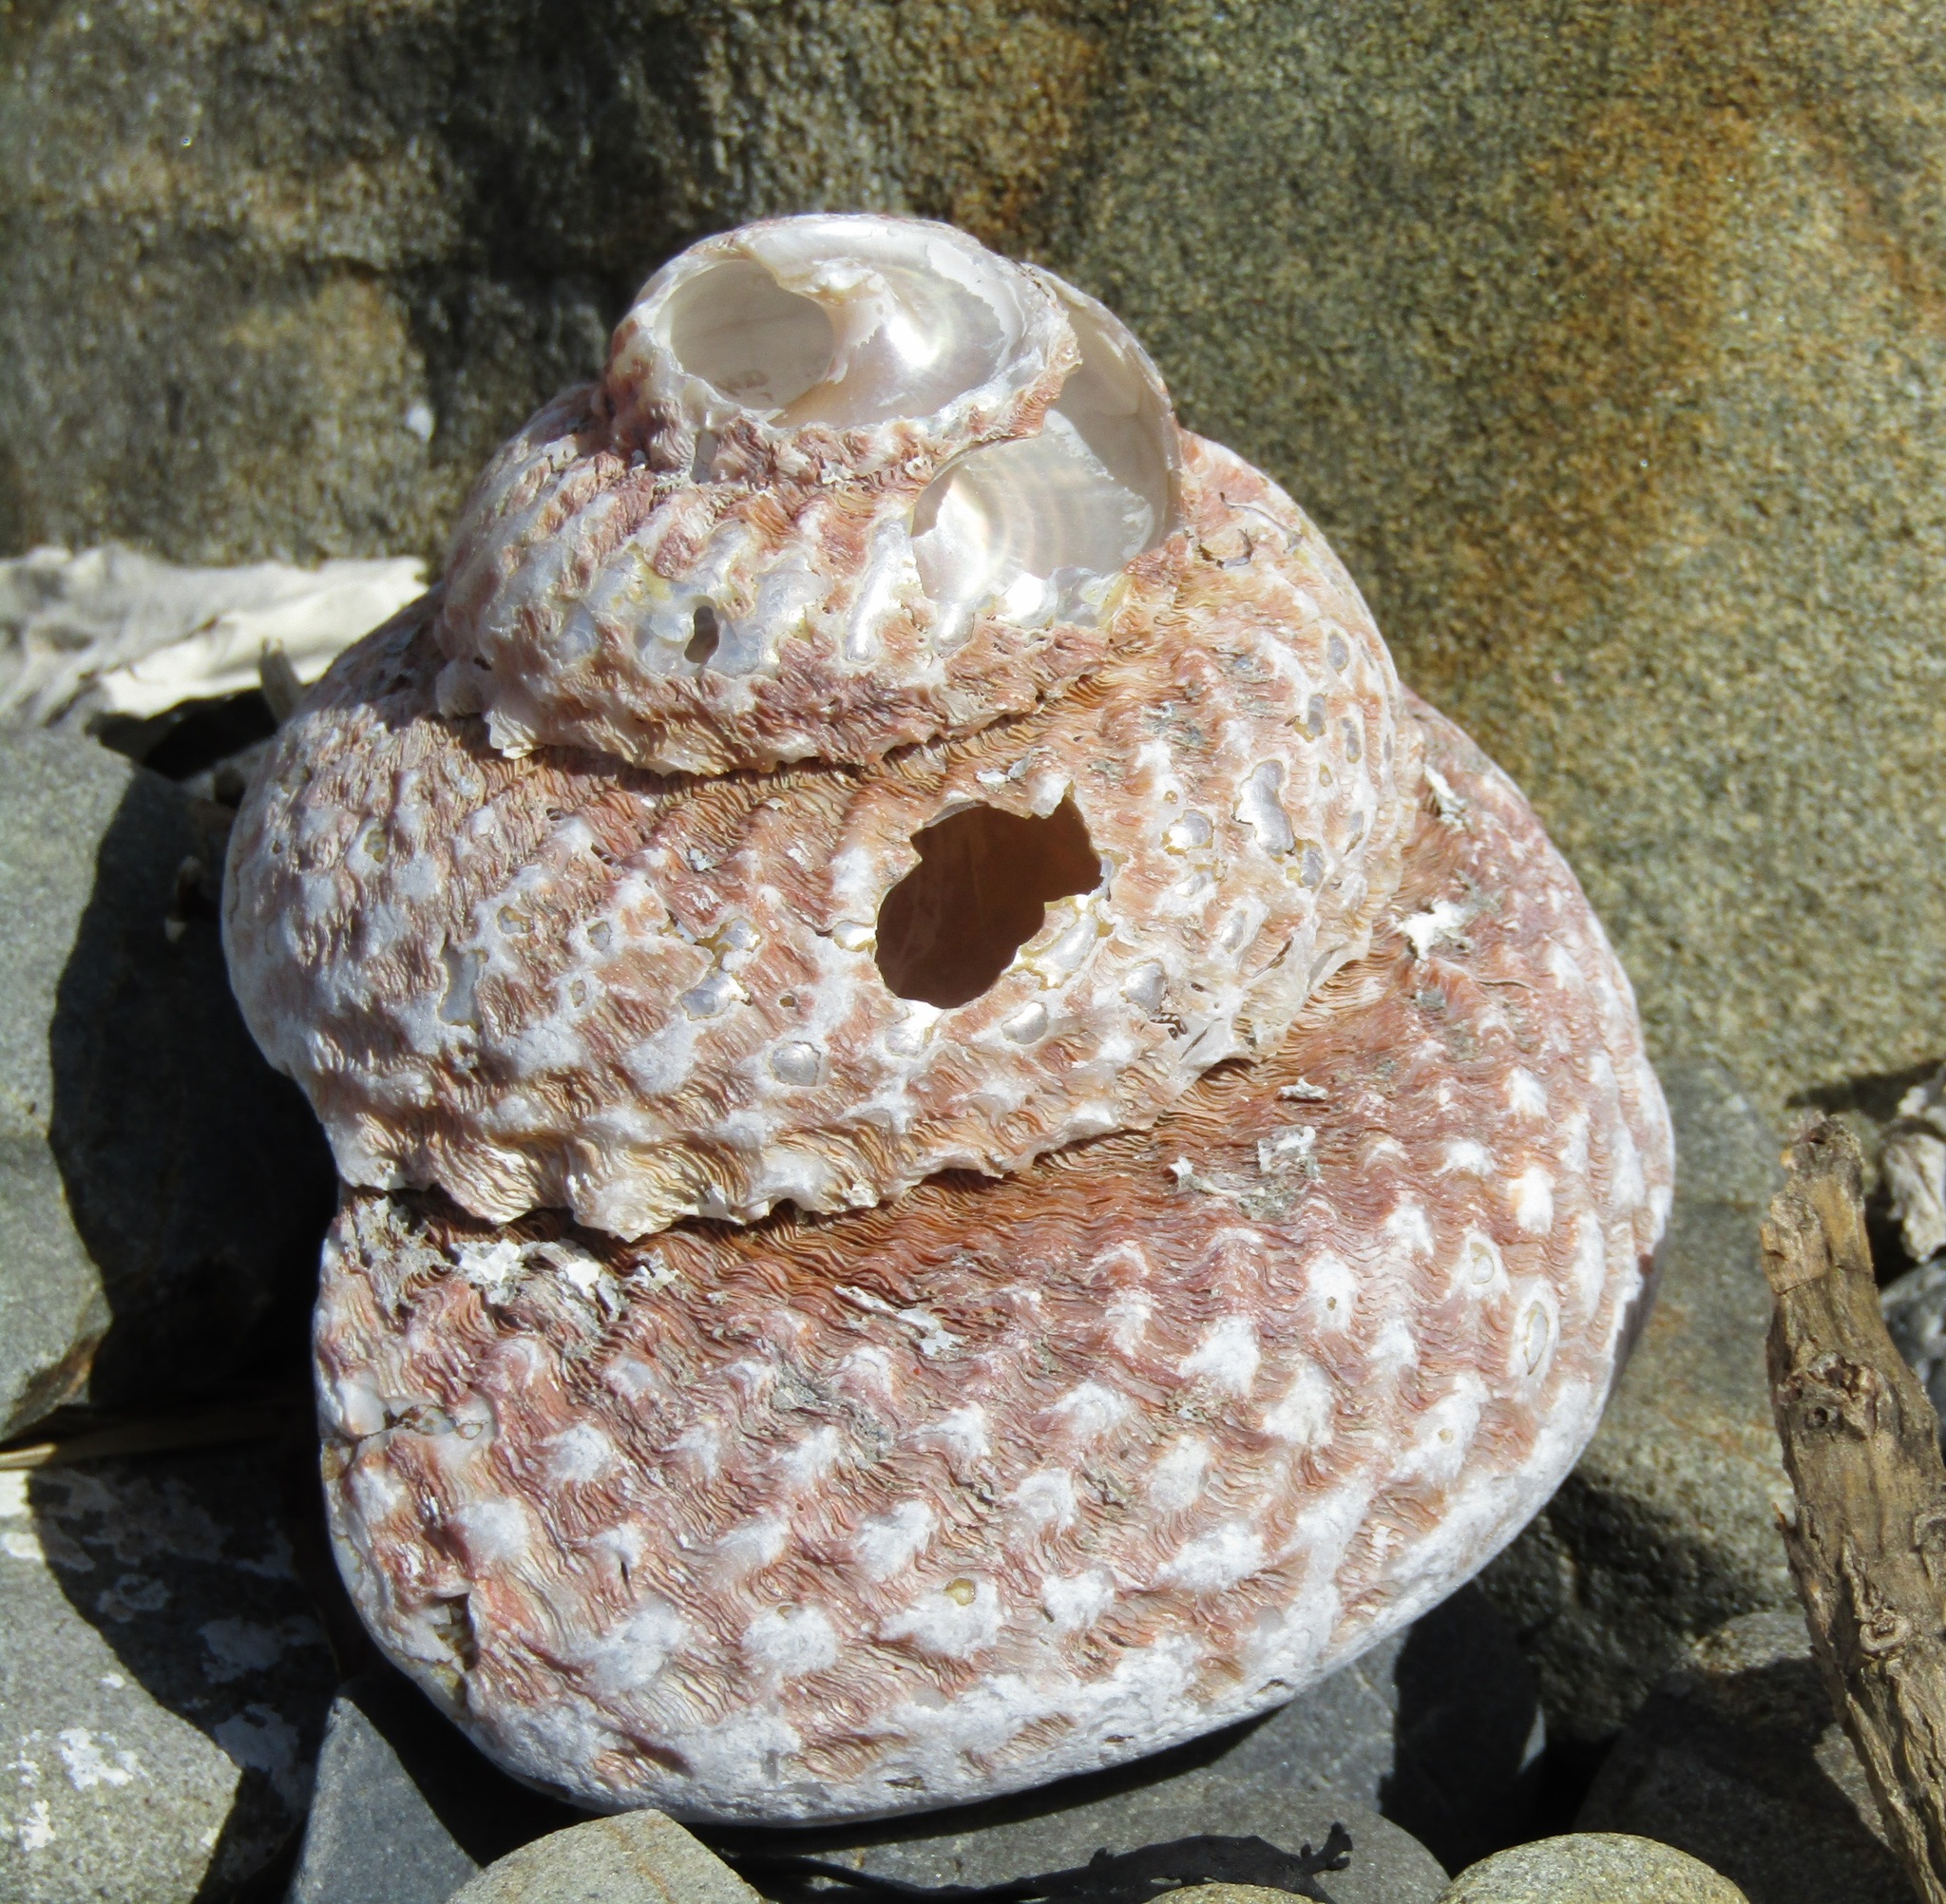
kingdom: Animalia
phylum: Mollusca
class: Gastropoda
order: Trochida
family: Turbinidae
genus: Cookia
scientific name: Cookia sulcata
